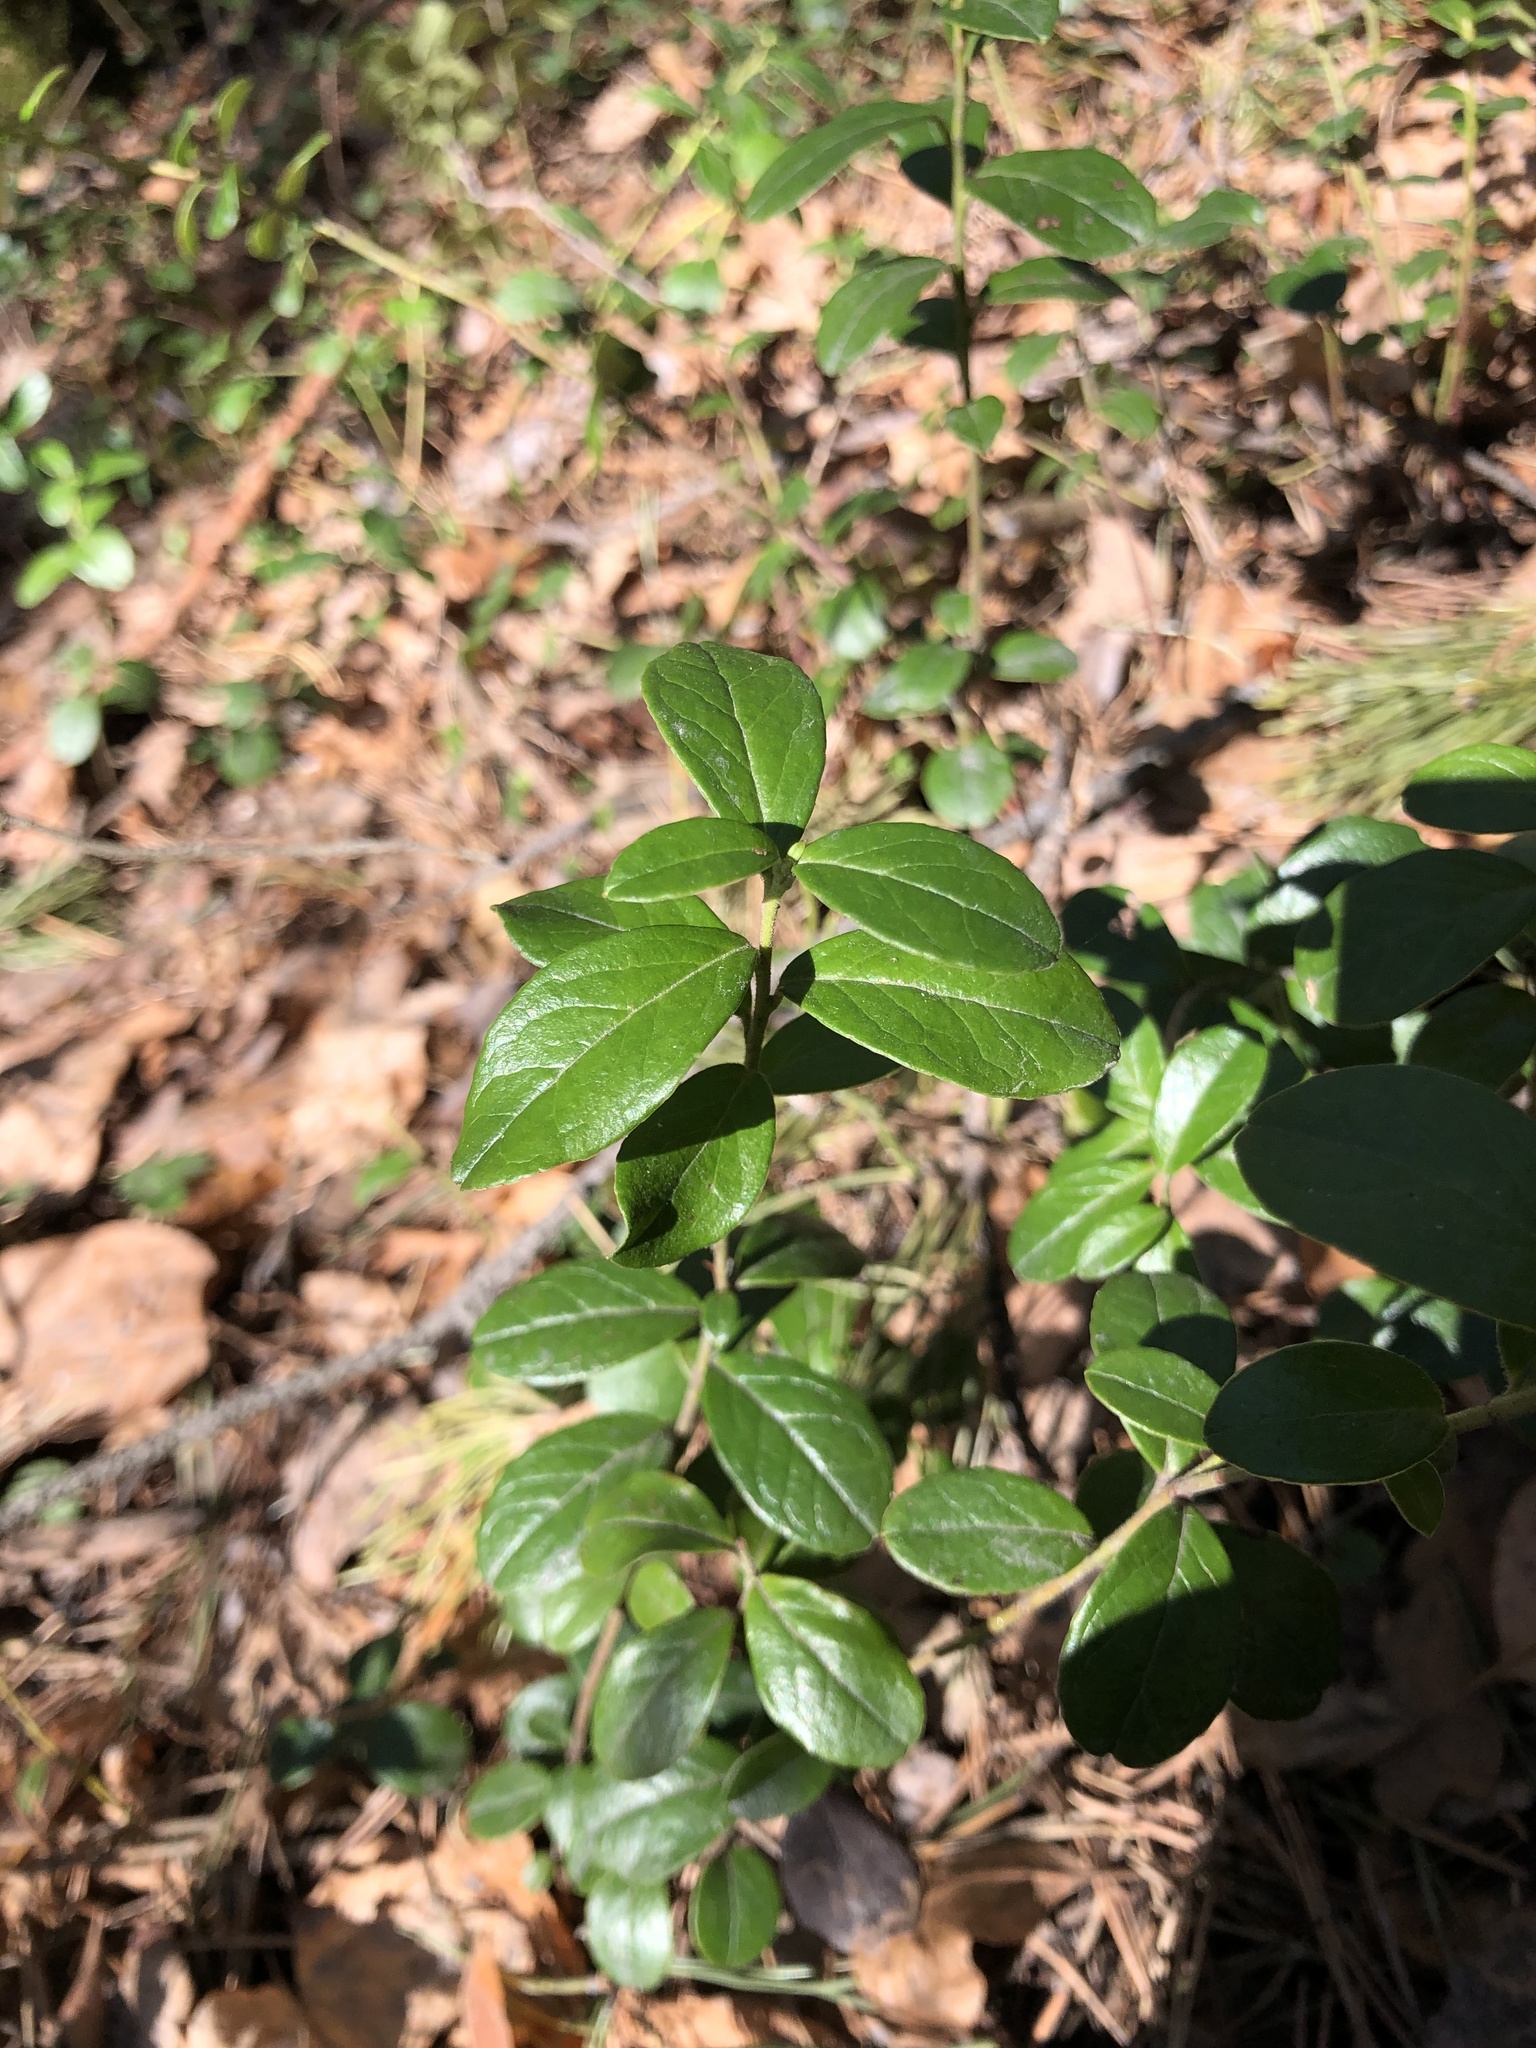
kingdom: Plantae
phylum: Tracheophyta
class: Magnoliopsida
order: Ericales
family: Ericaceae
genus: Vaccinium
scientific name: Vaccinium vitis-idaea
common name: Cowberry
